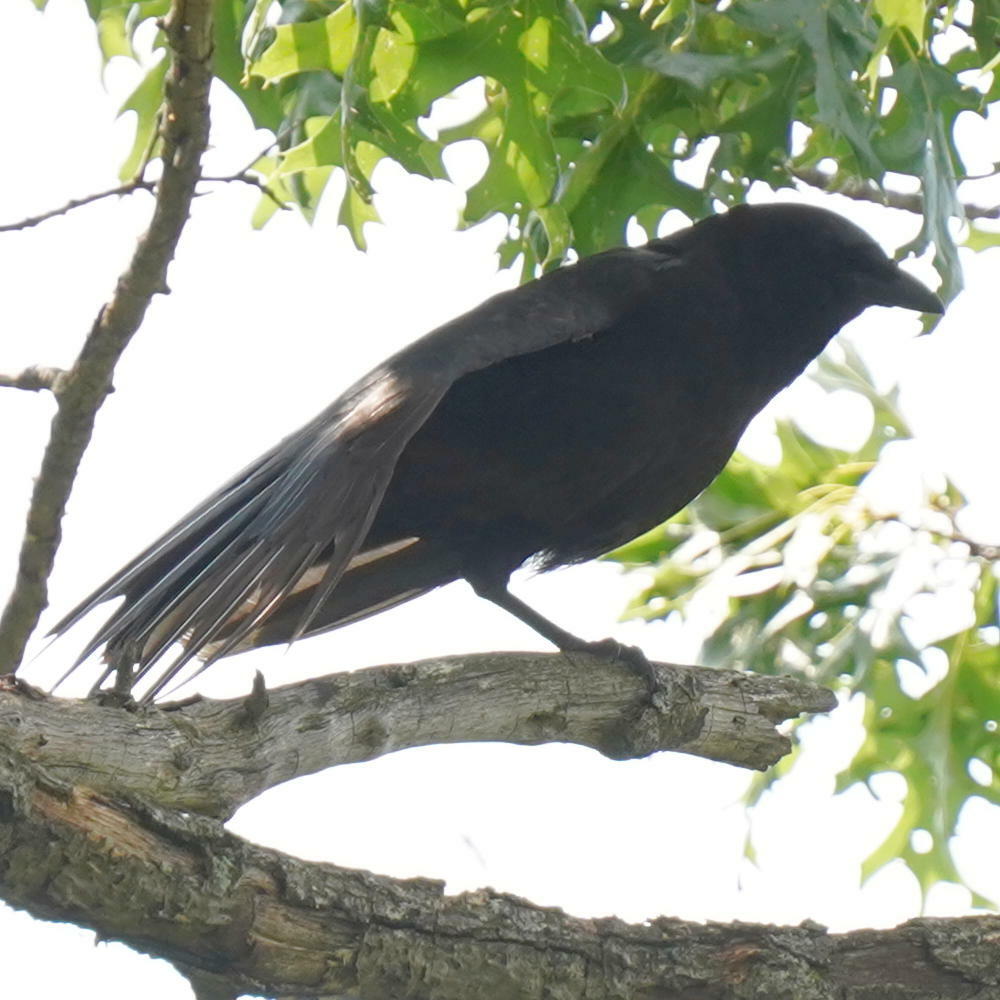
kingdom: Animalia
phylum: Chordata
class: Aves
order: Passeriformes
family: Corvidae
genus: Corvus
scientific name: Corvus brachyrhynchos
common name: American crow
